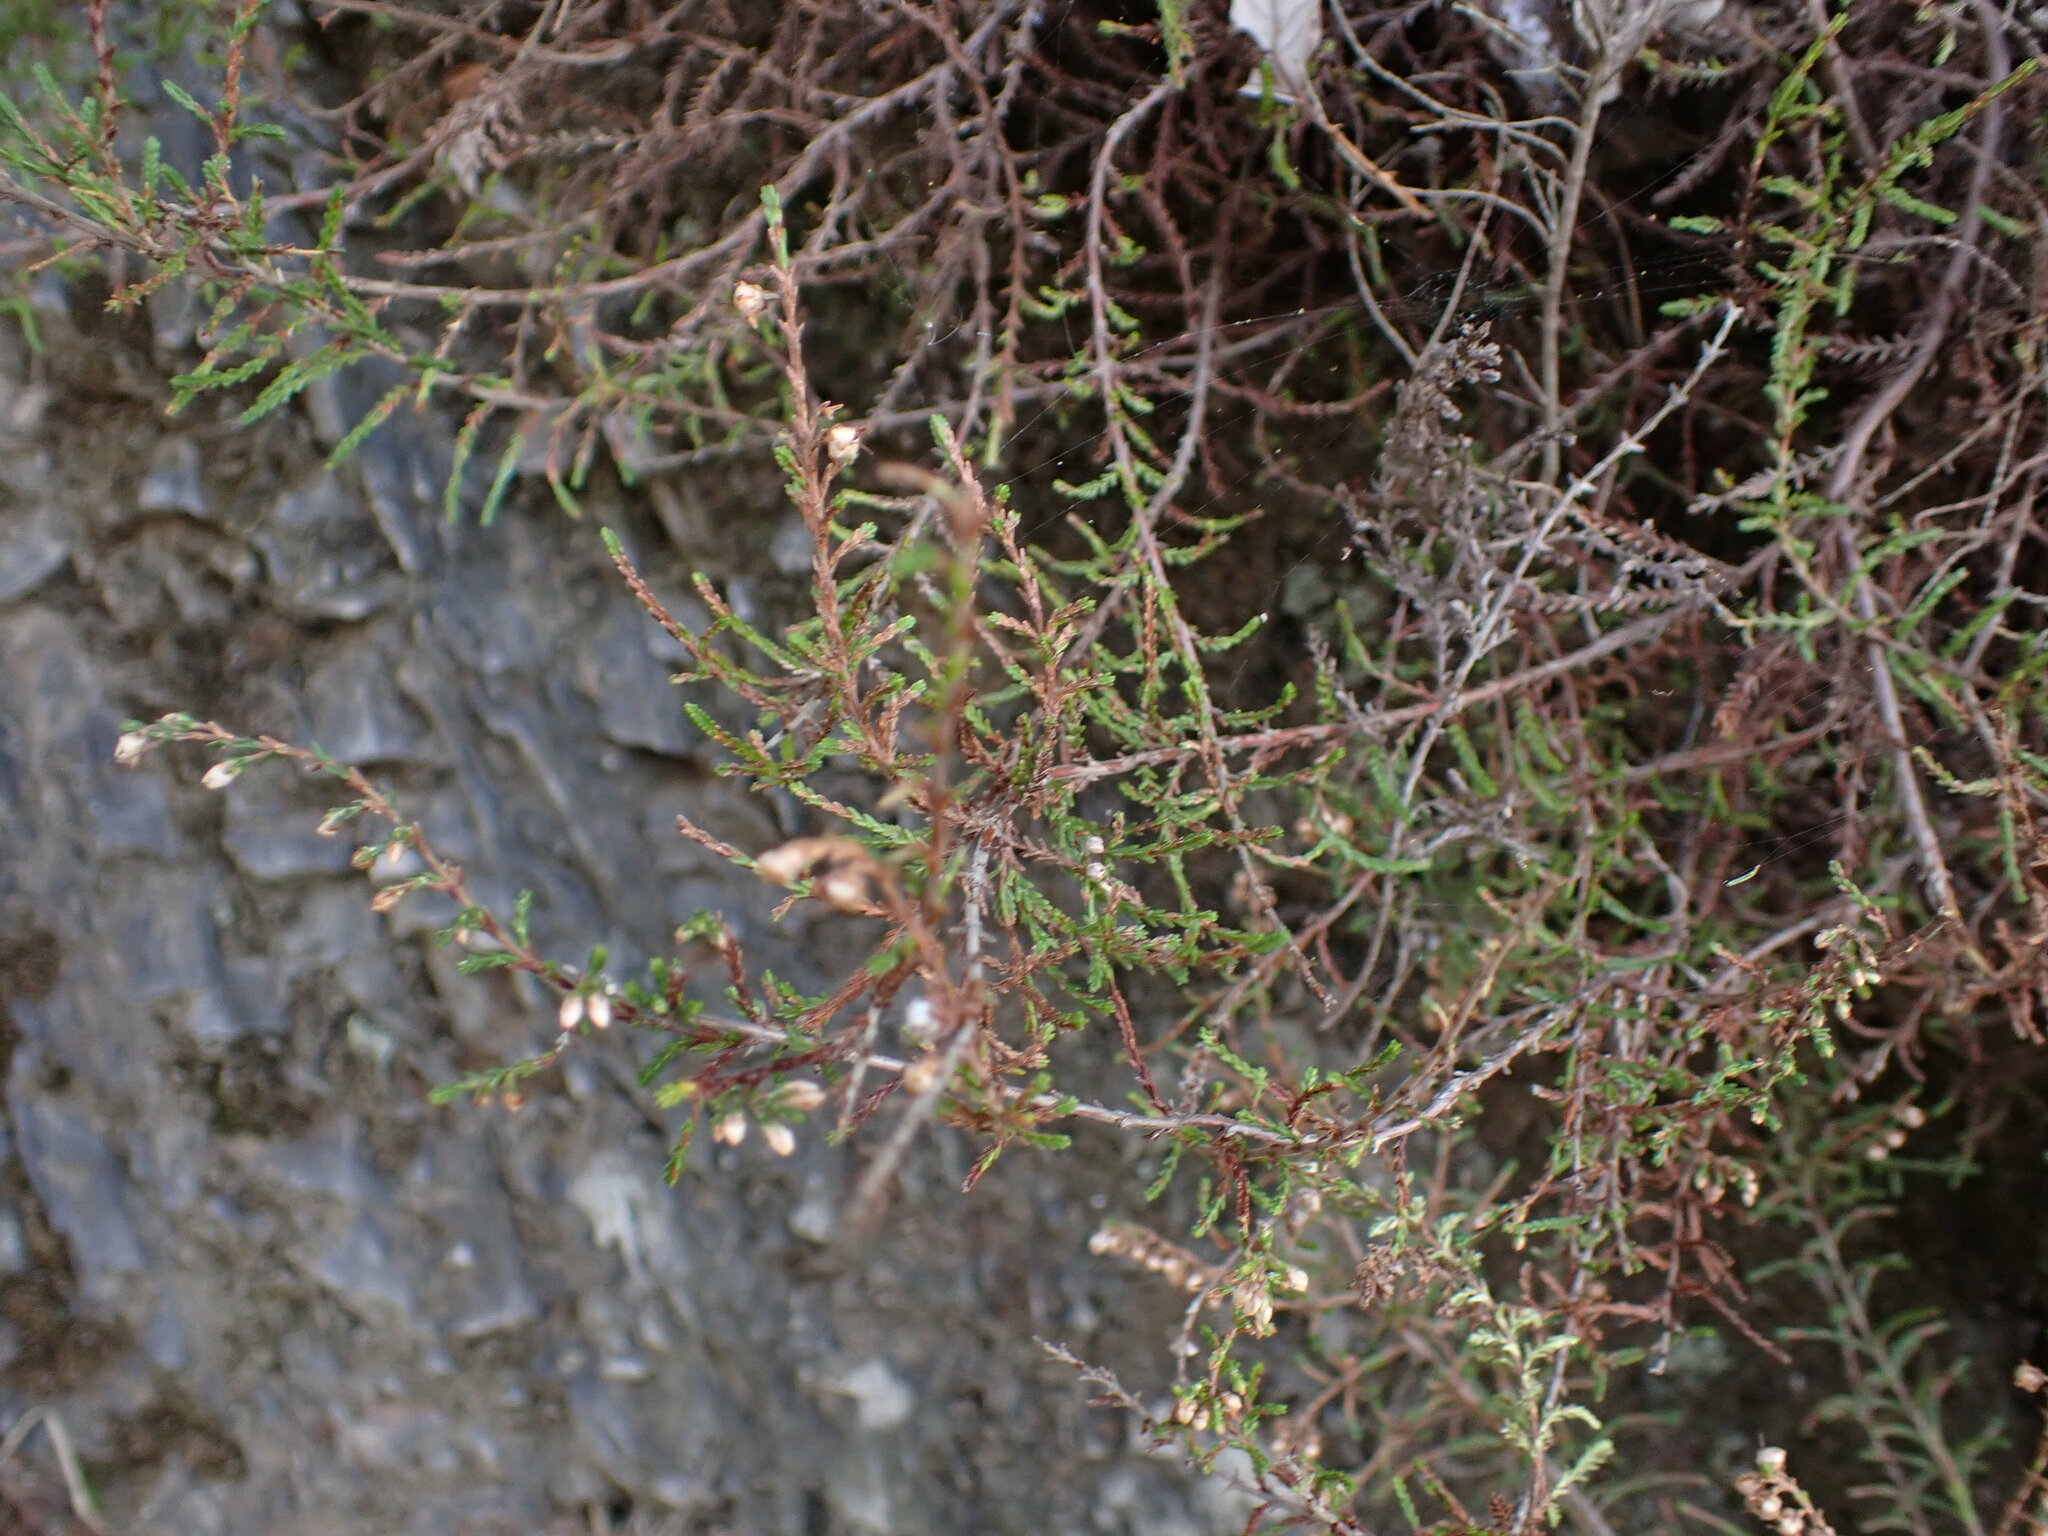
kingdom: Plantae
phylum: Tracheophyta
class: Magnoliopsida
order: Ericales
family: Ericaceae
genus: Calluna
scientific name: Calluna vulgaris
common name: Heather
